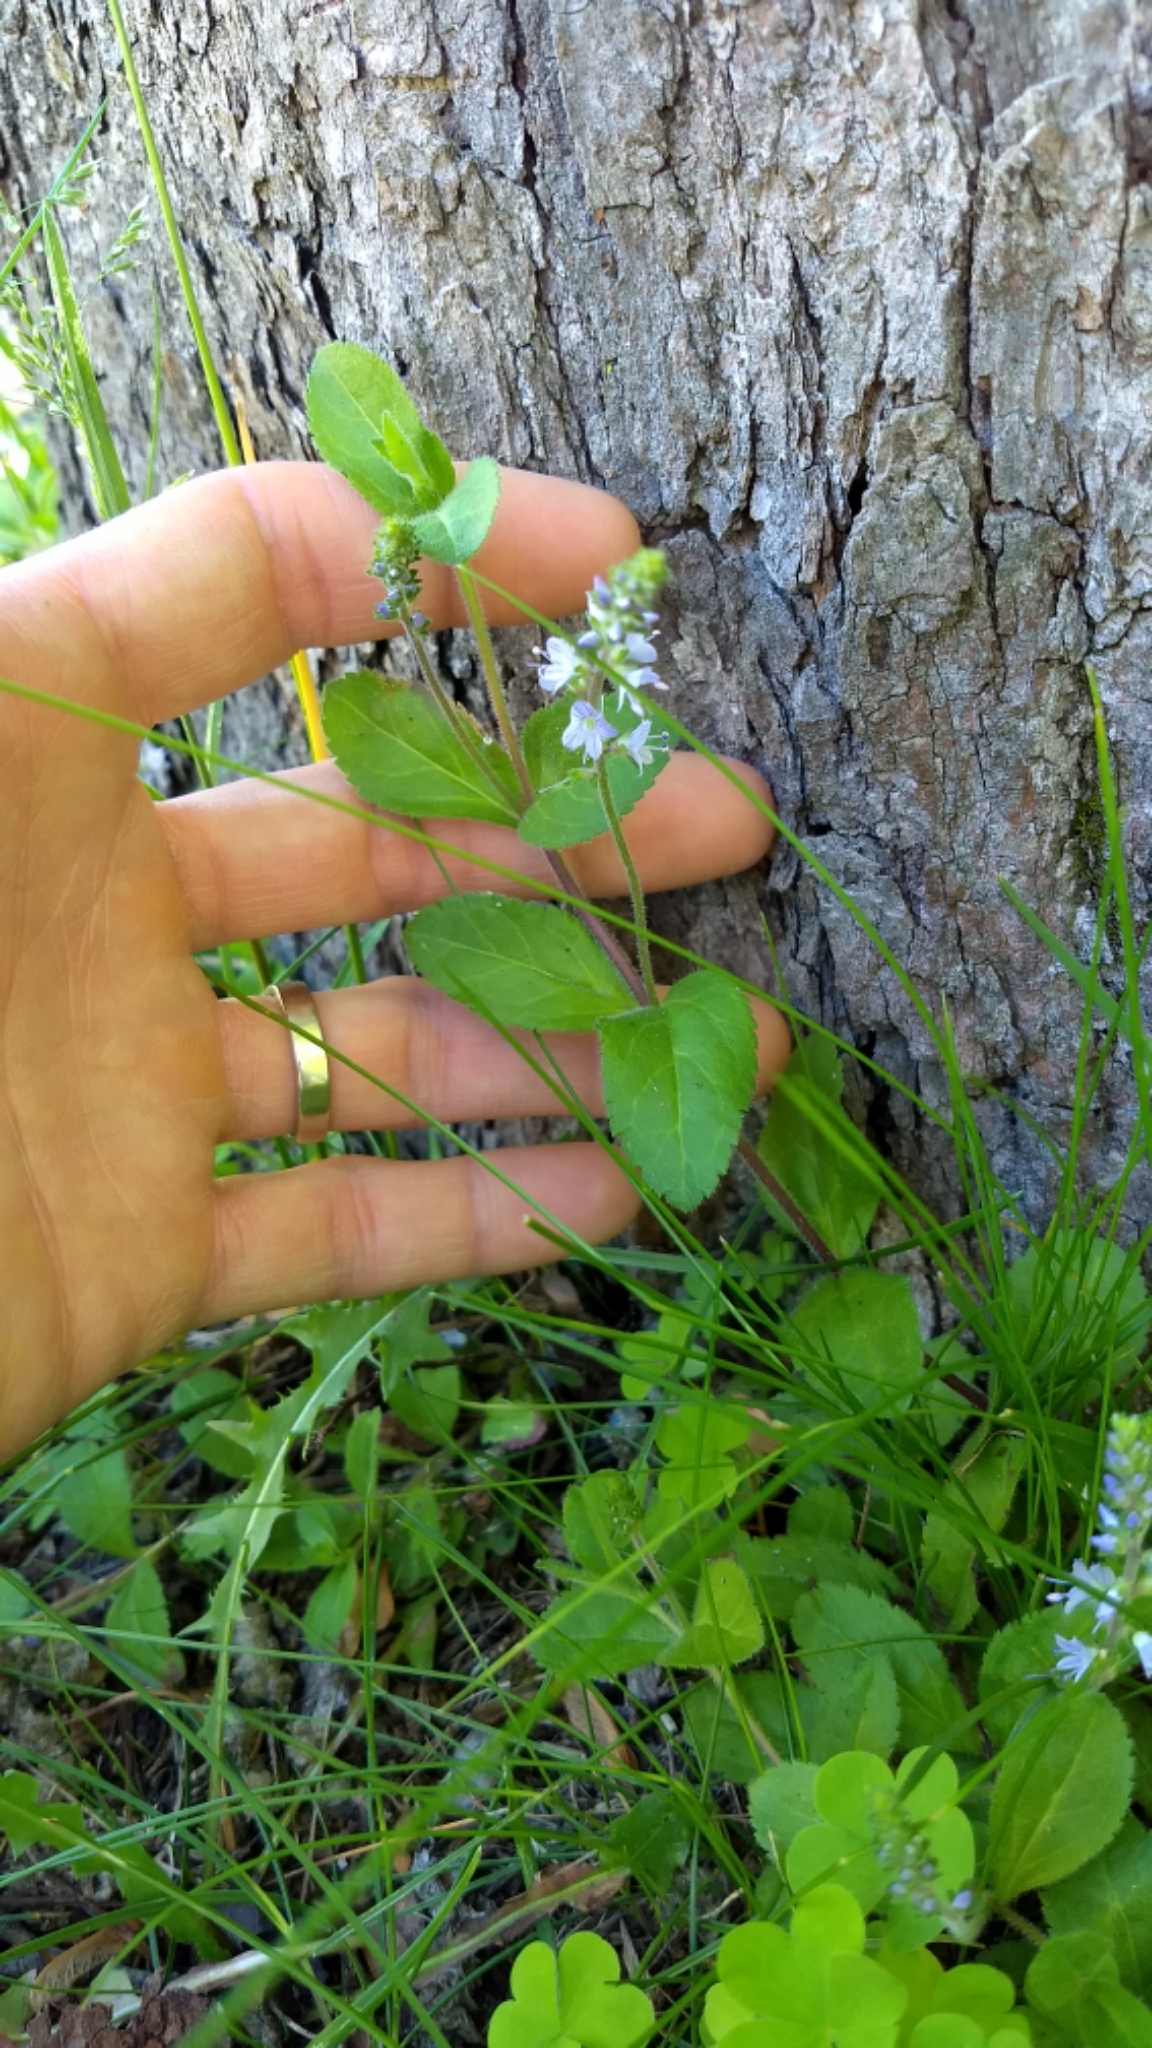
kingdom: Plantae
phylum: Tracheophyta
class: Magnoliopsida
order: Lamiales
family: Plantaginaceae
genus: Veronica
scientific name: Veronica officinalis
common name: Common speedwell
